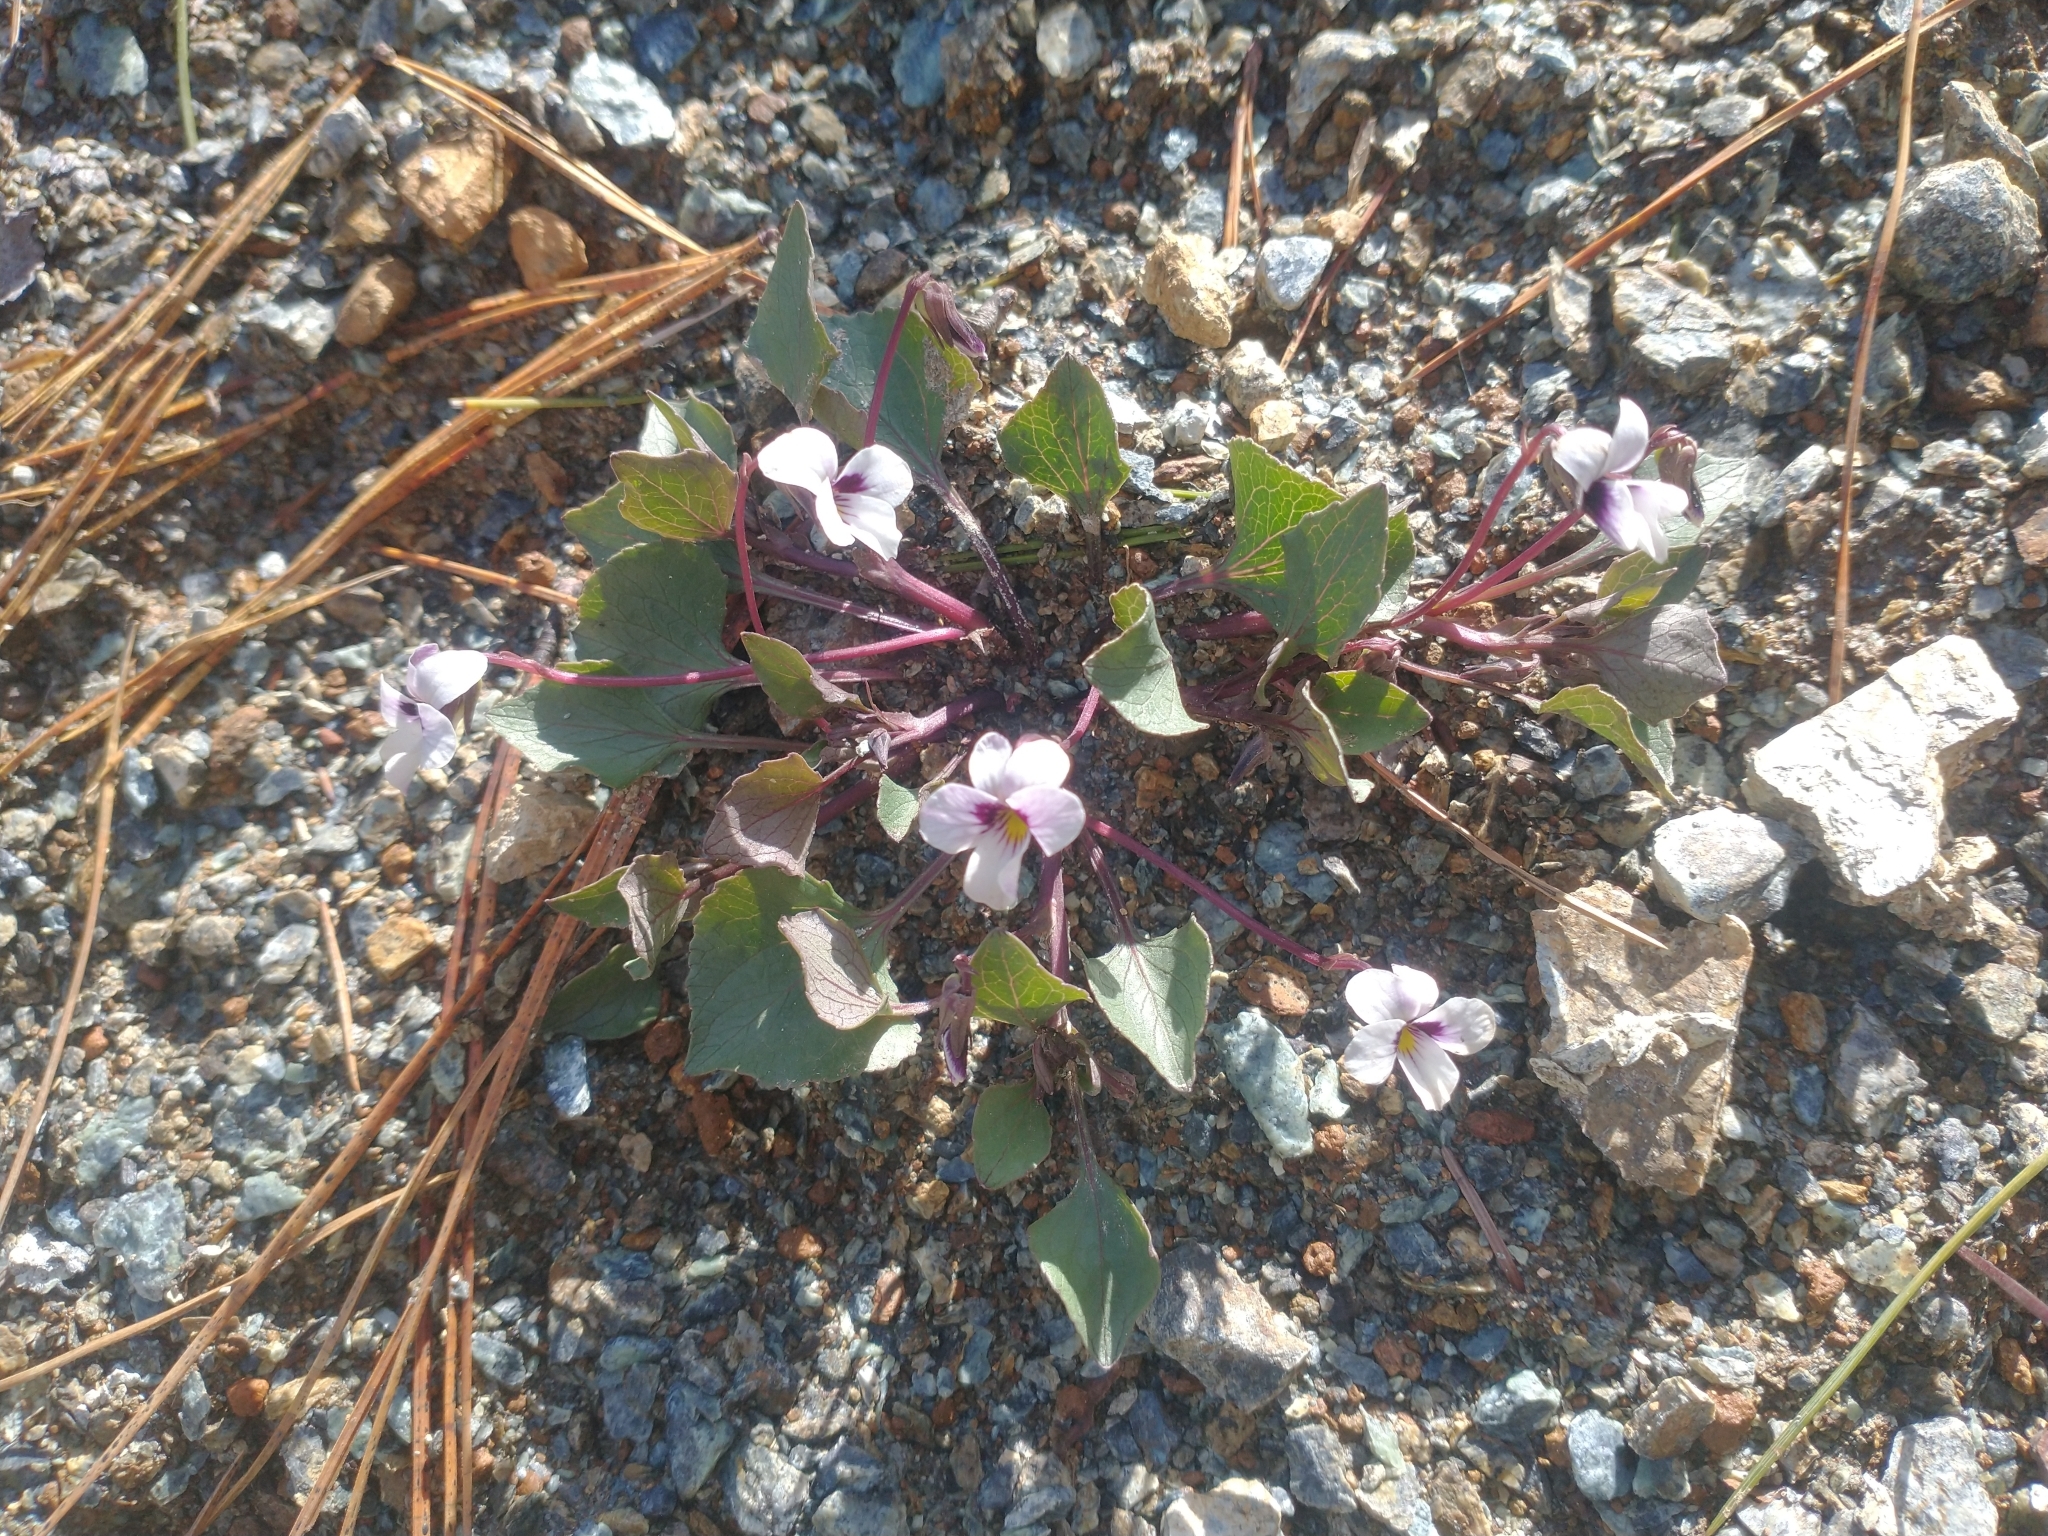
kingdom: Plantae
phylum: Tracheophyta
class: Magnoliopsida
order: Malpighiales
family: Violaceae
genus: Viola
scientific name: Viola cuneata
